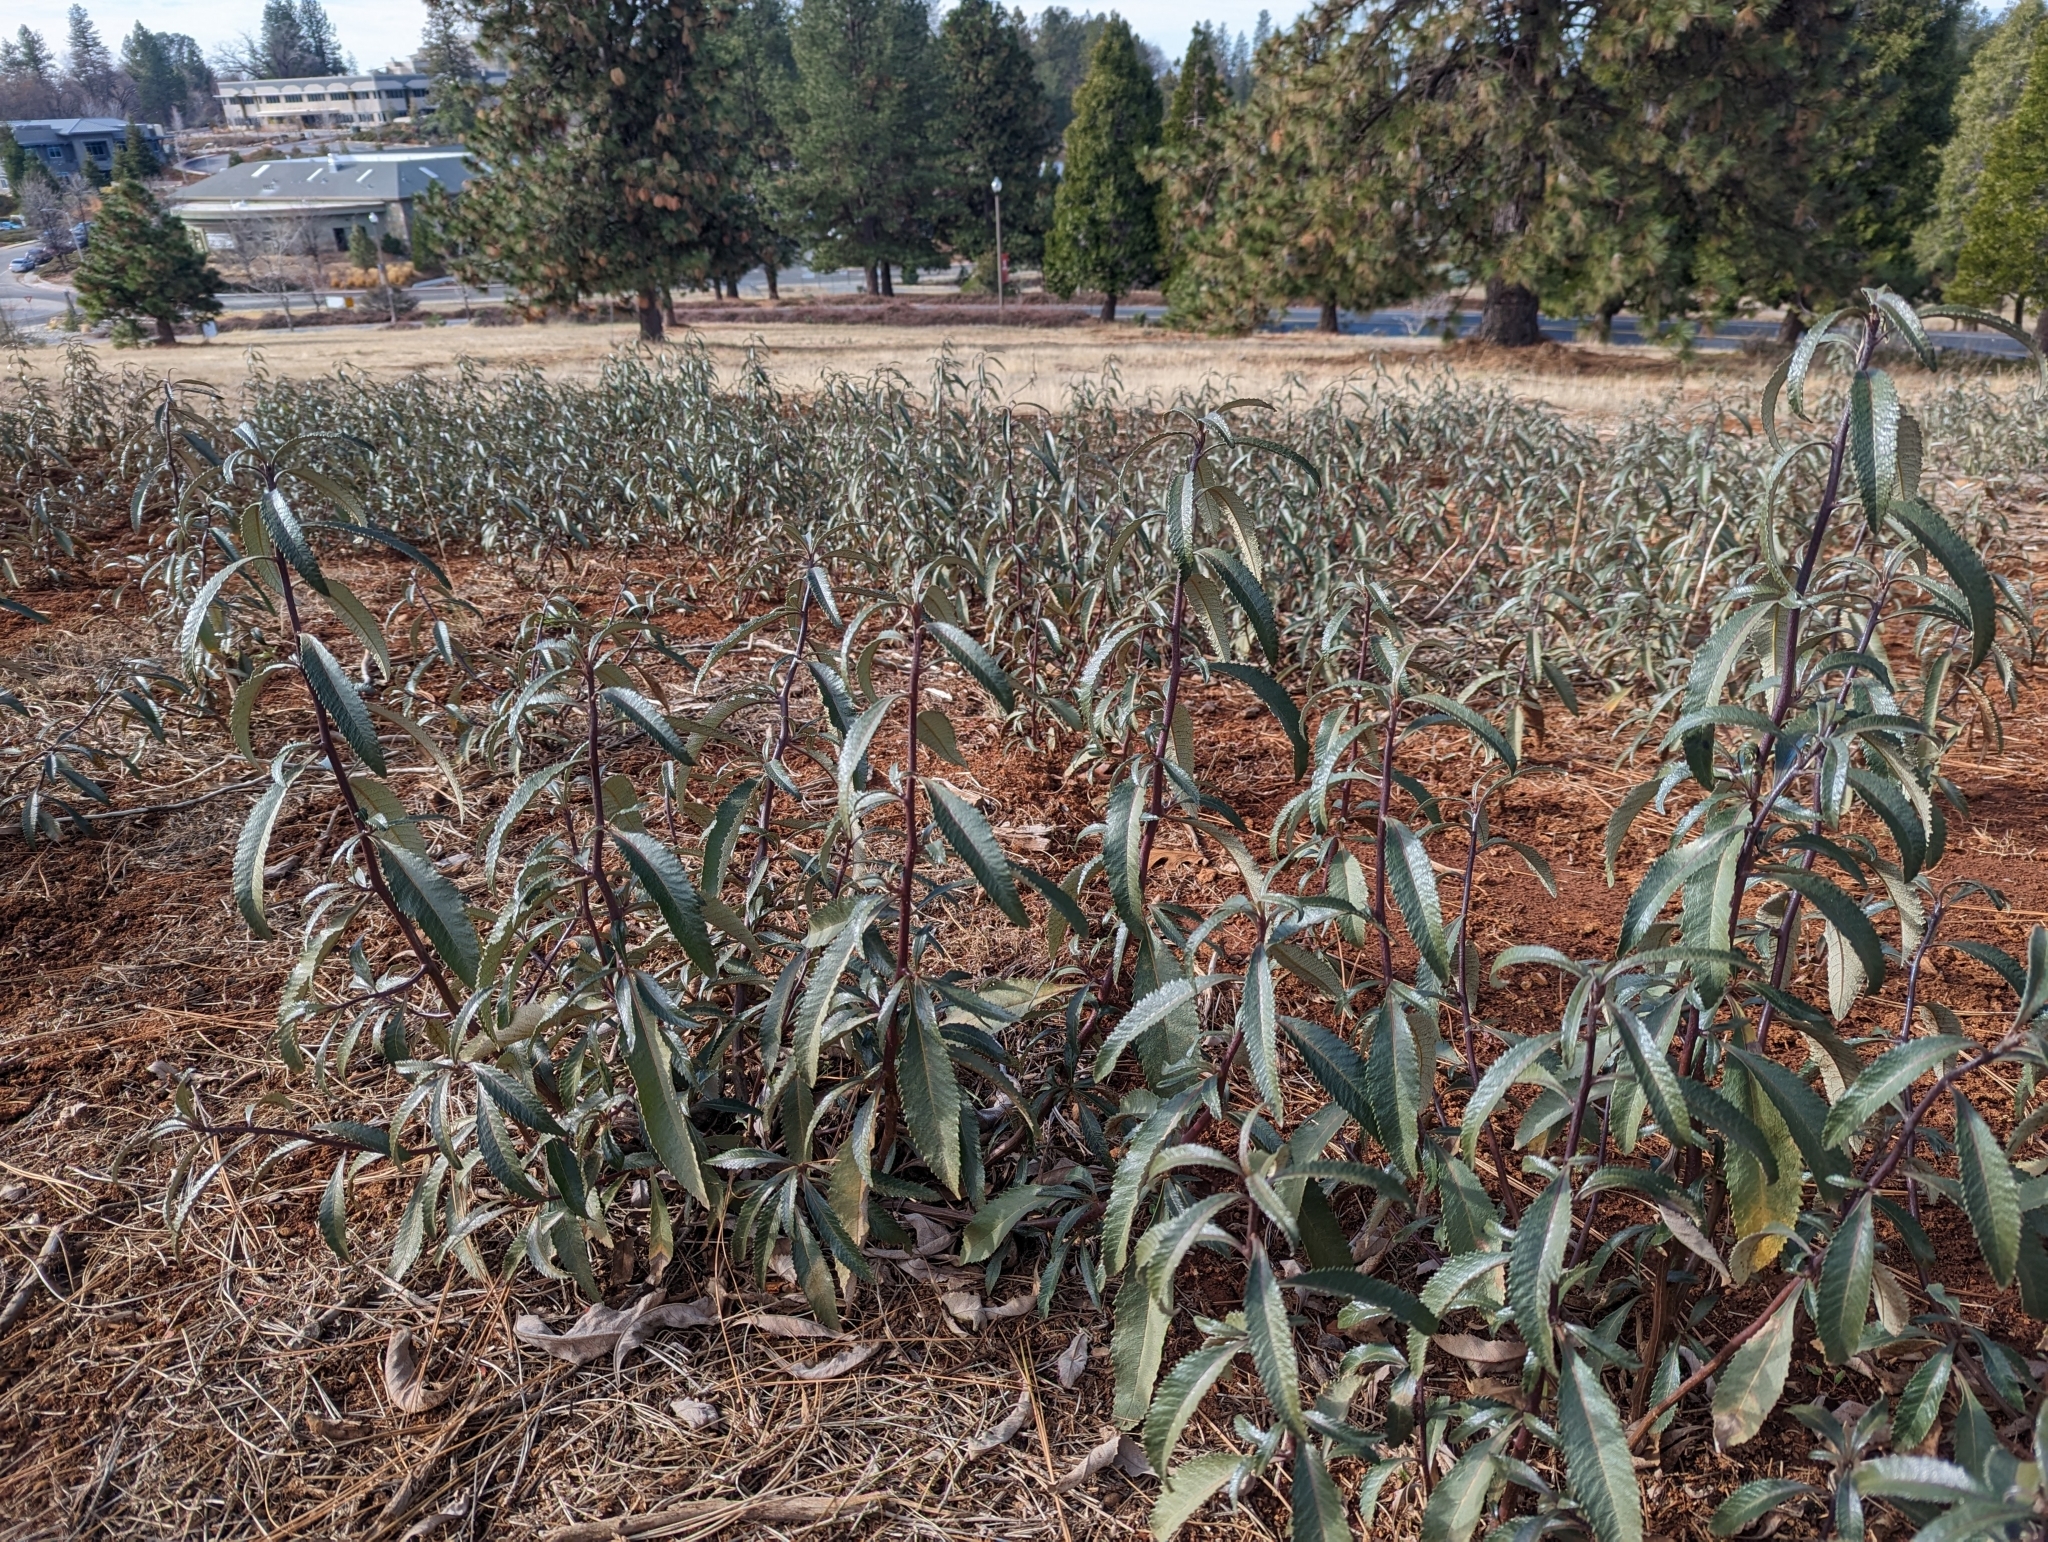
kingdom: Plantae
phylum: Tracheophyta
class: Magnoliopsida
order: Boraginales
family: Namaceae
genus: Eriodictyon
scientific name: Eriodictyon californicum
